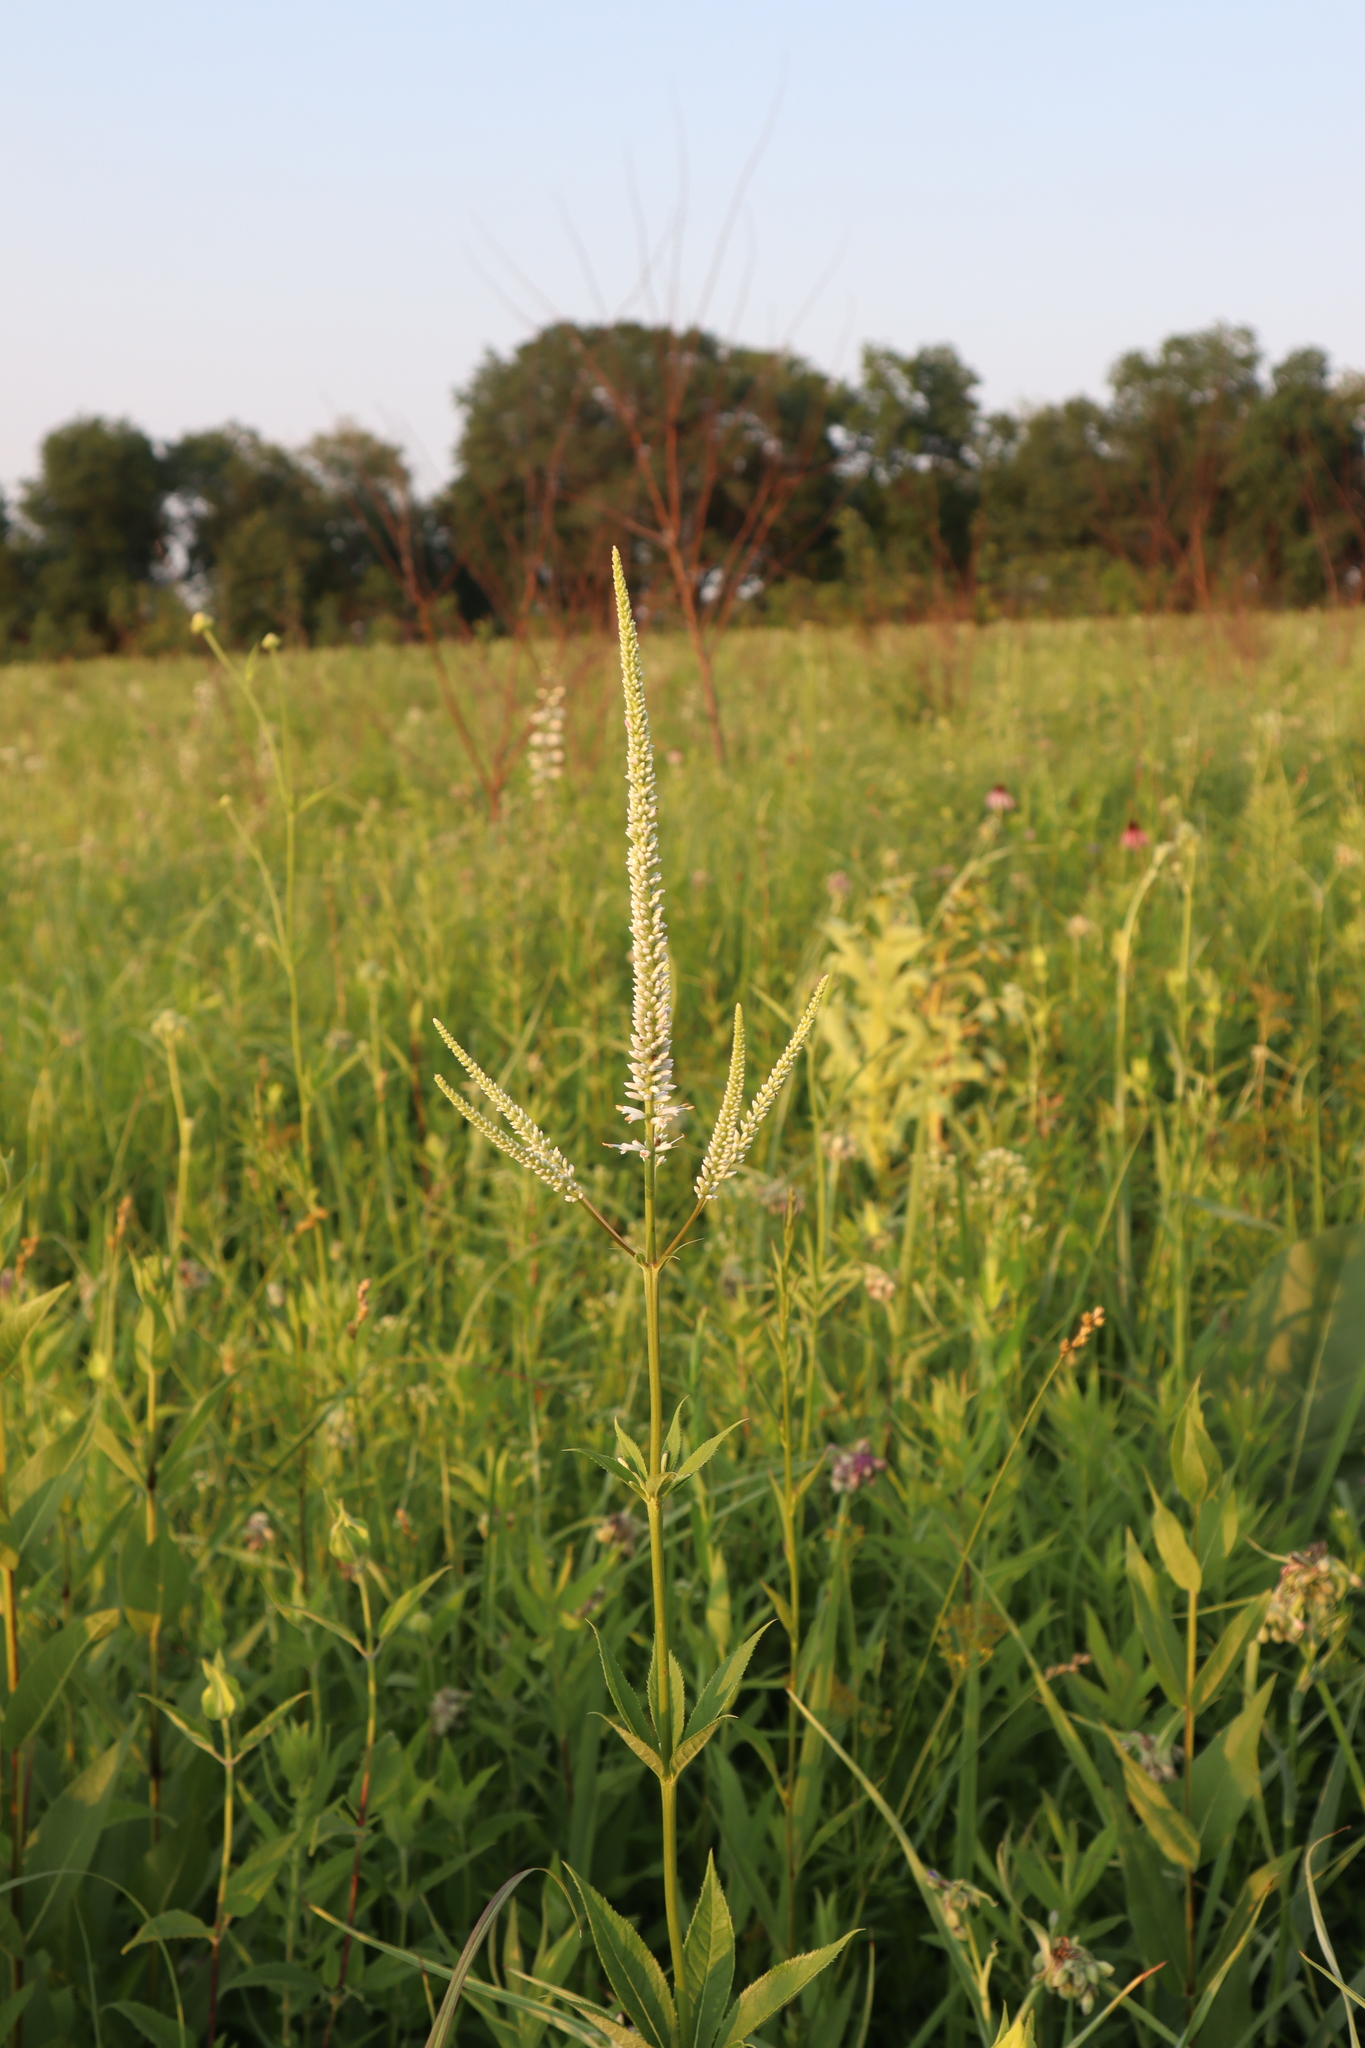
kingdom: Plantae
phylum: Tracheophyta
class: Magnoliopsida
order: Lamiales
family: Plantaginaceae
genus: Veronicastrum
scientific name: Veronicastrum virginicum
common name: Blackroot
